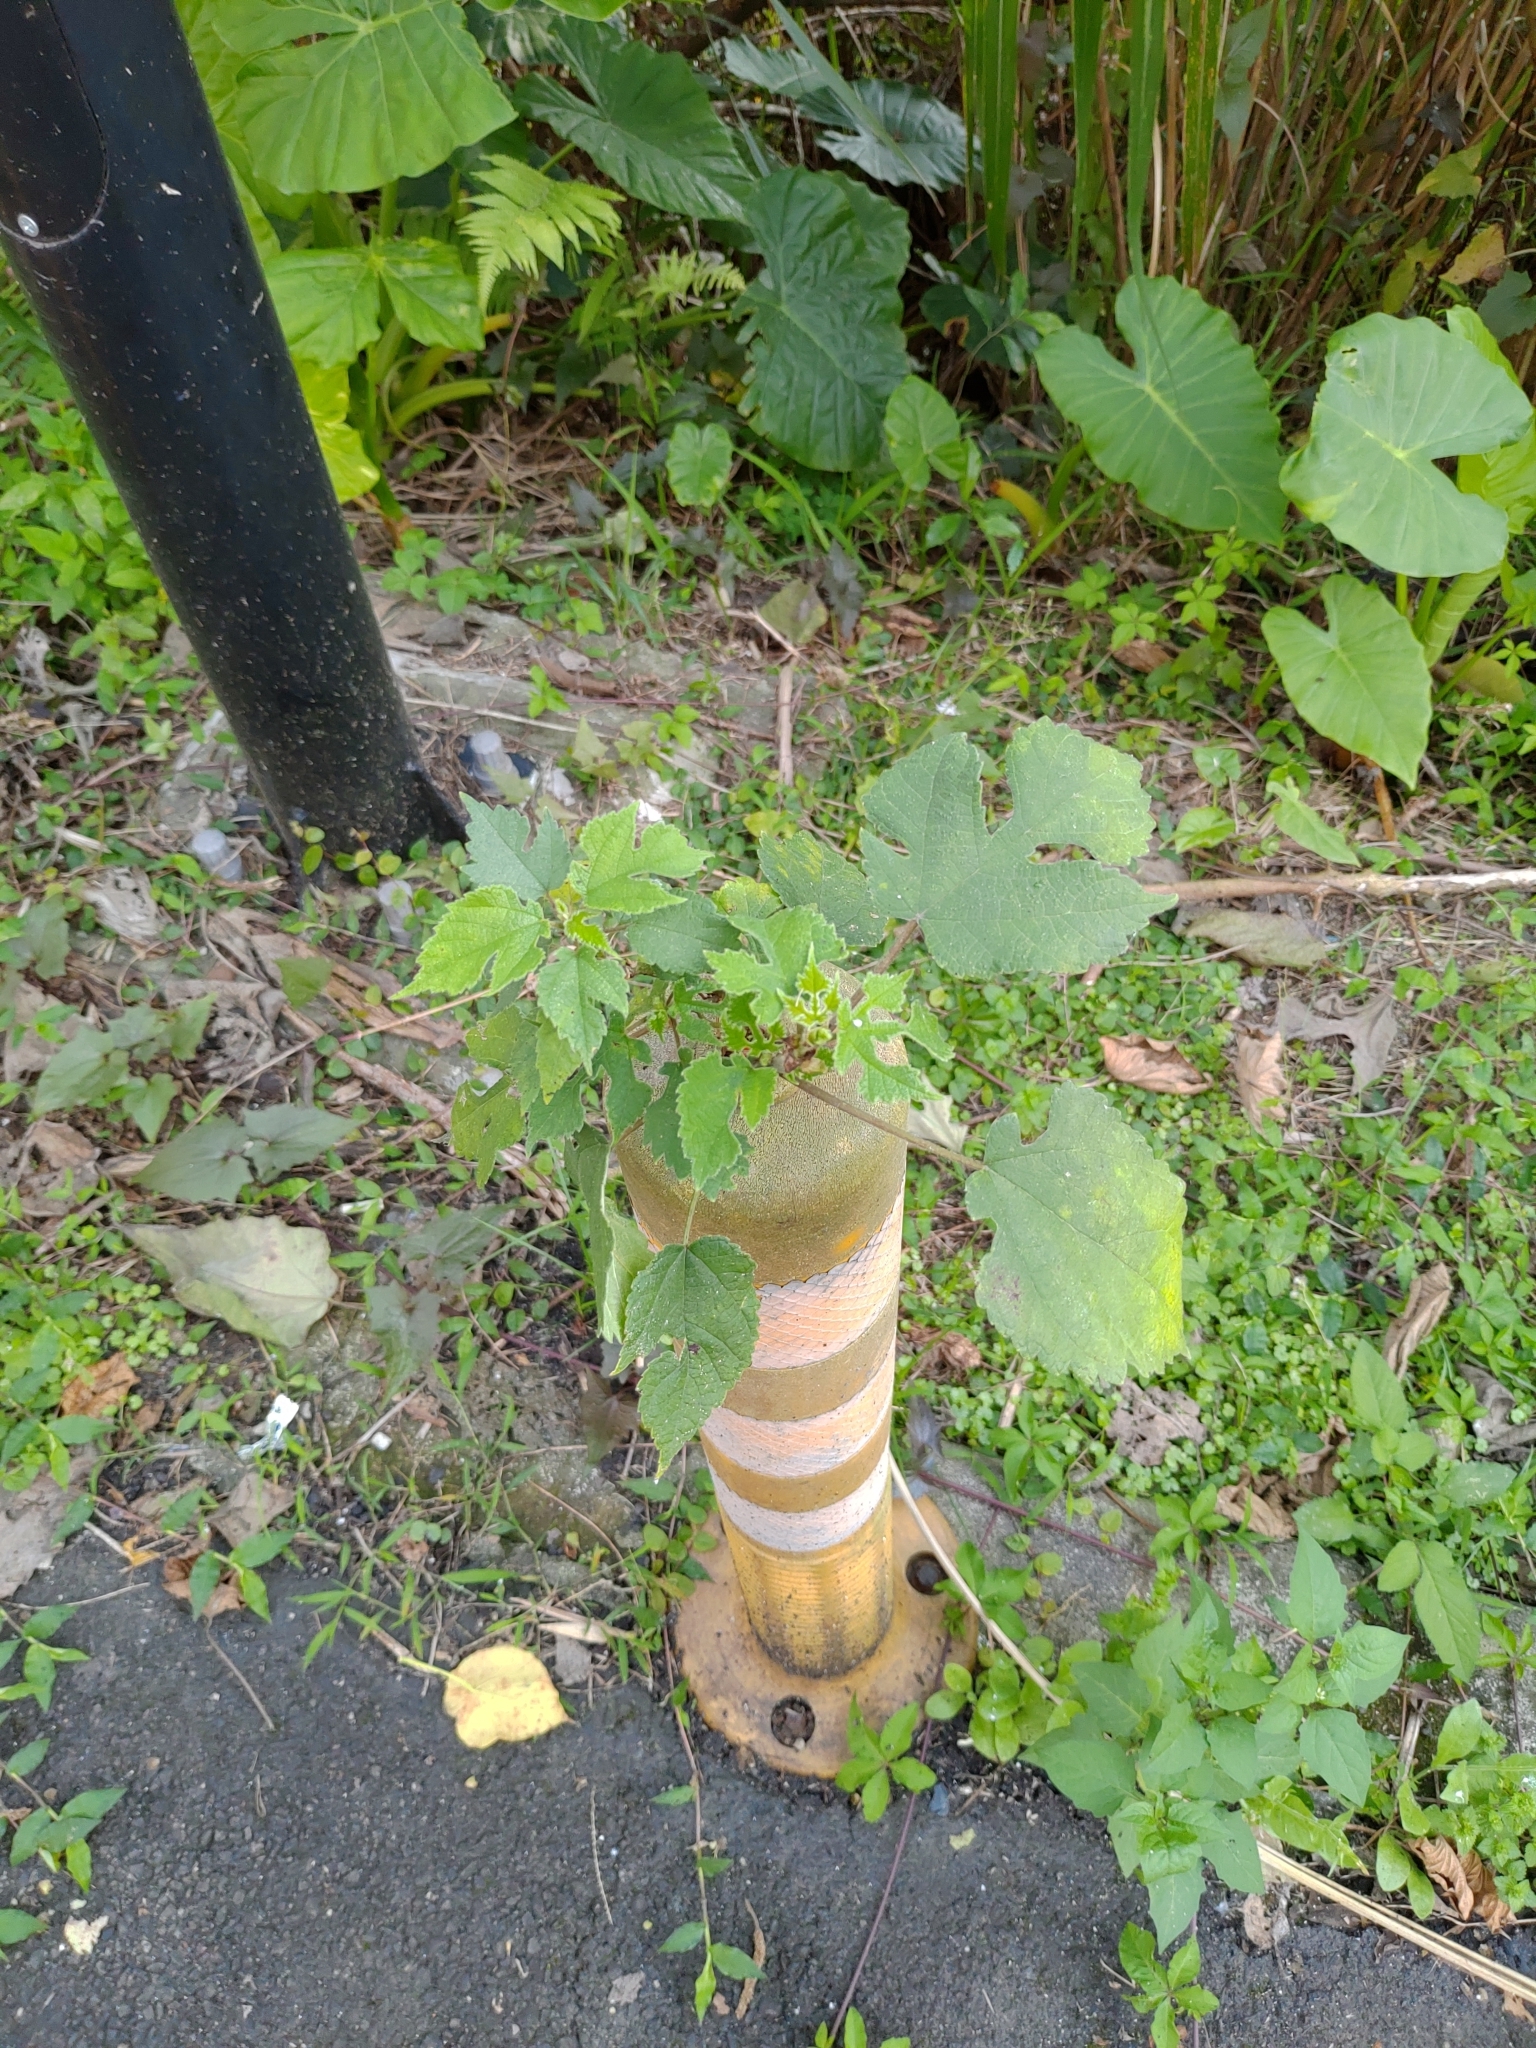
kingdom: Plantae
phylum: Tracheophyta
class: Magnoliopsida
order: Rosales
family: Moraceae
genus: Broussonetia
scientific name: Broussonetia papyrifera
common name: Paper mulberry
